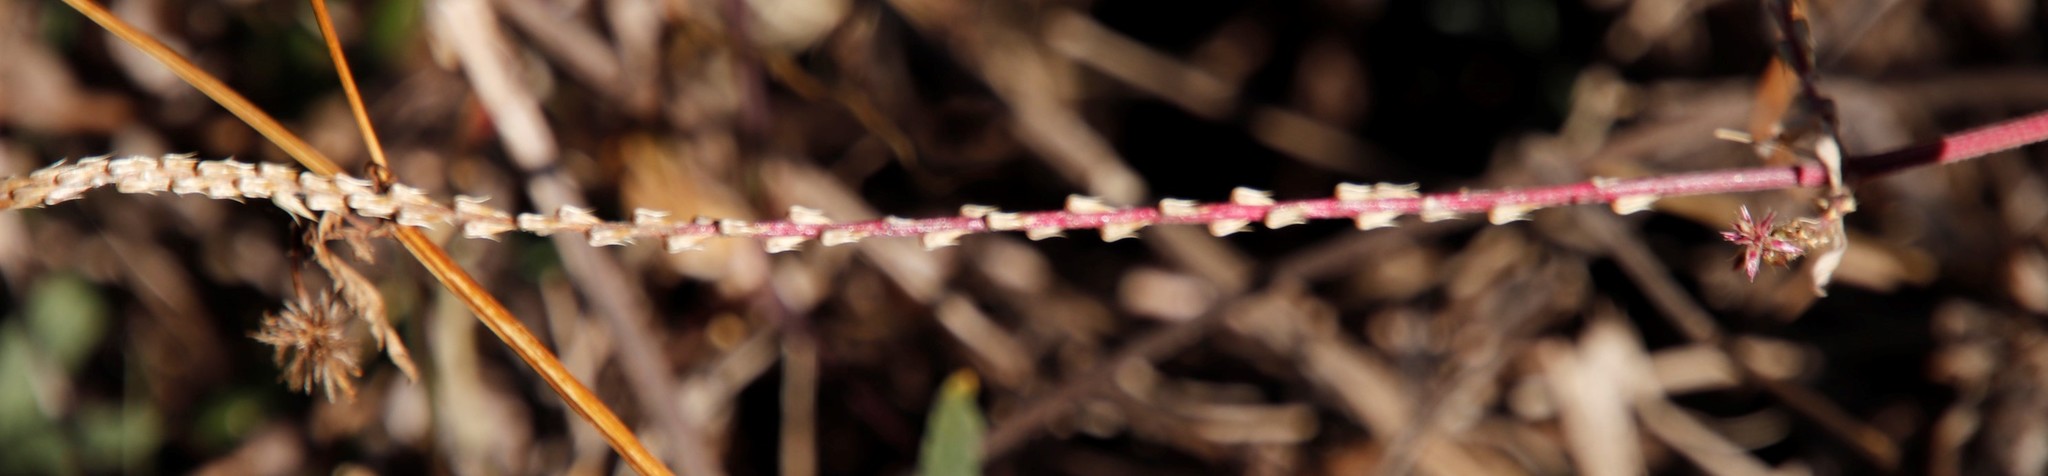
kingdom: Plantae
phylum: Tracheophyta
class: Magnoliopsida
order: Caryophyllales
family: Amaranthaceae
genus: Achyranthes
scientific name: Achyranthes aspera
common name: Devil's horsewhip
